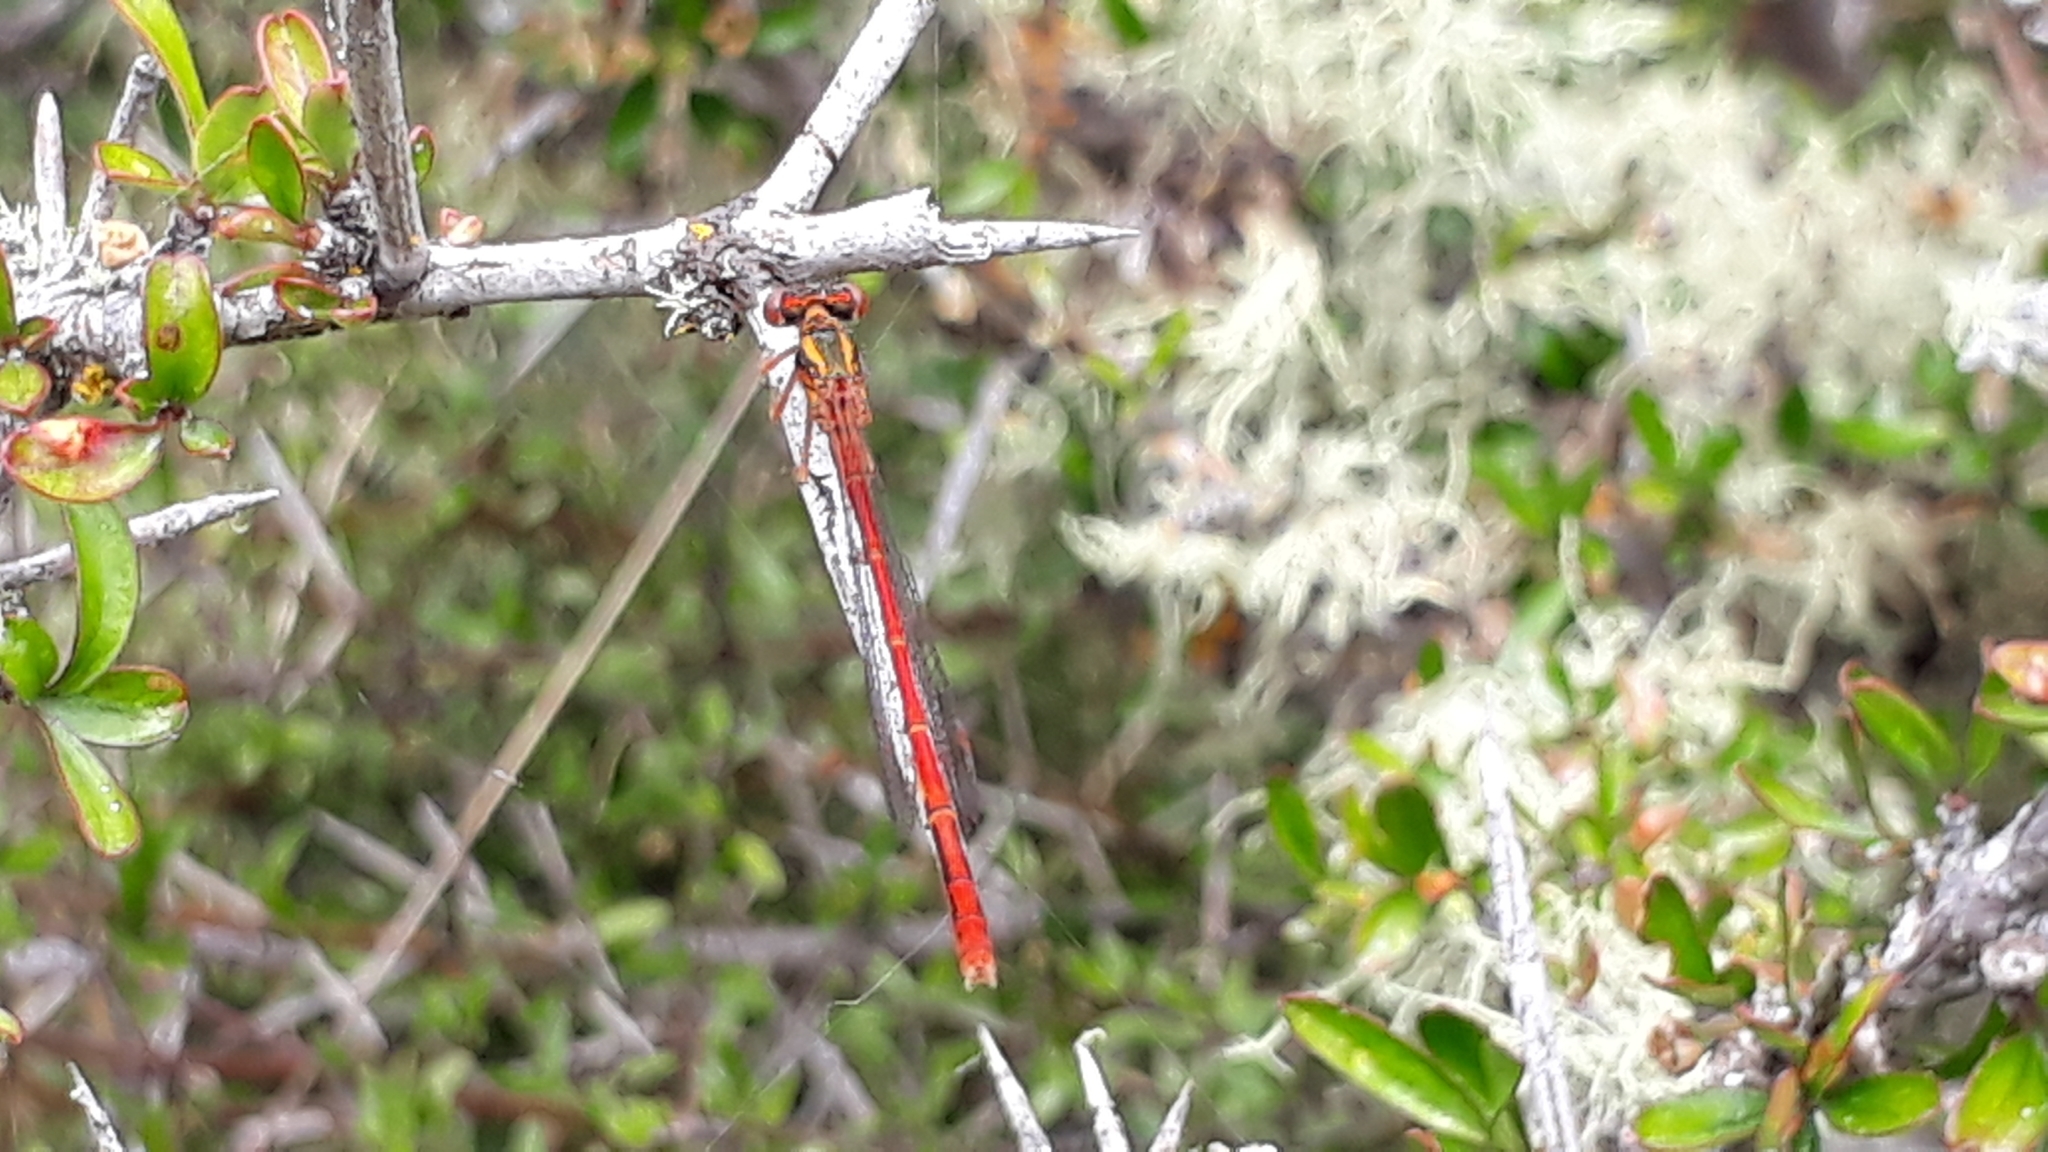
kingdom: Animalia
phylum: Arthropoda
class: Insecta
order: Odonata
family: Coenagrionidae
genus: Xanthocnemis
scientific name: Xanthocnemis zealandica
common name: Common redcoat damselfly
